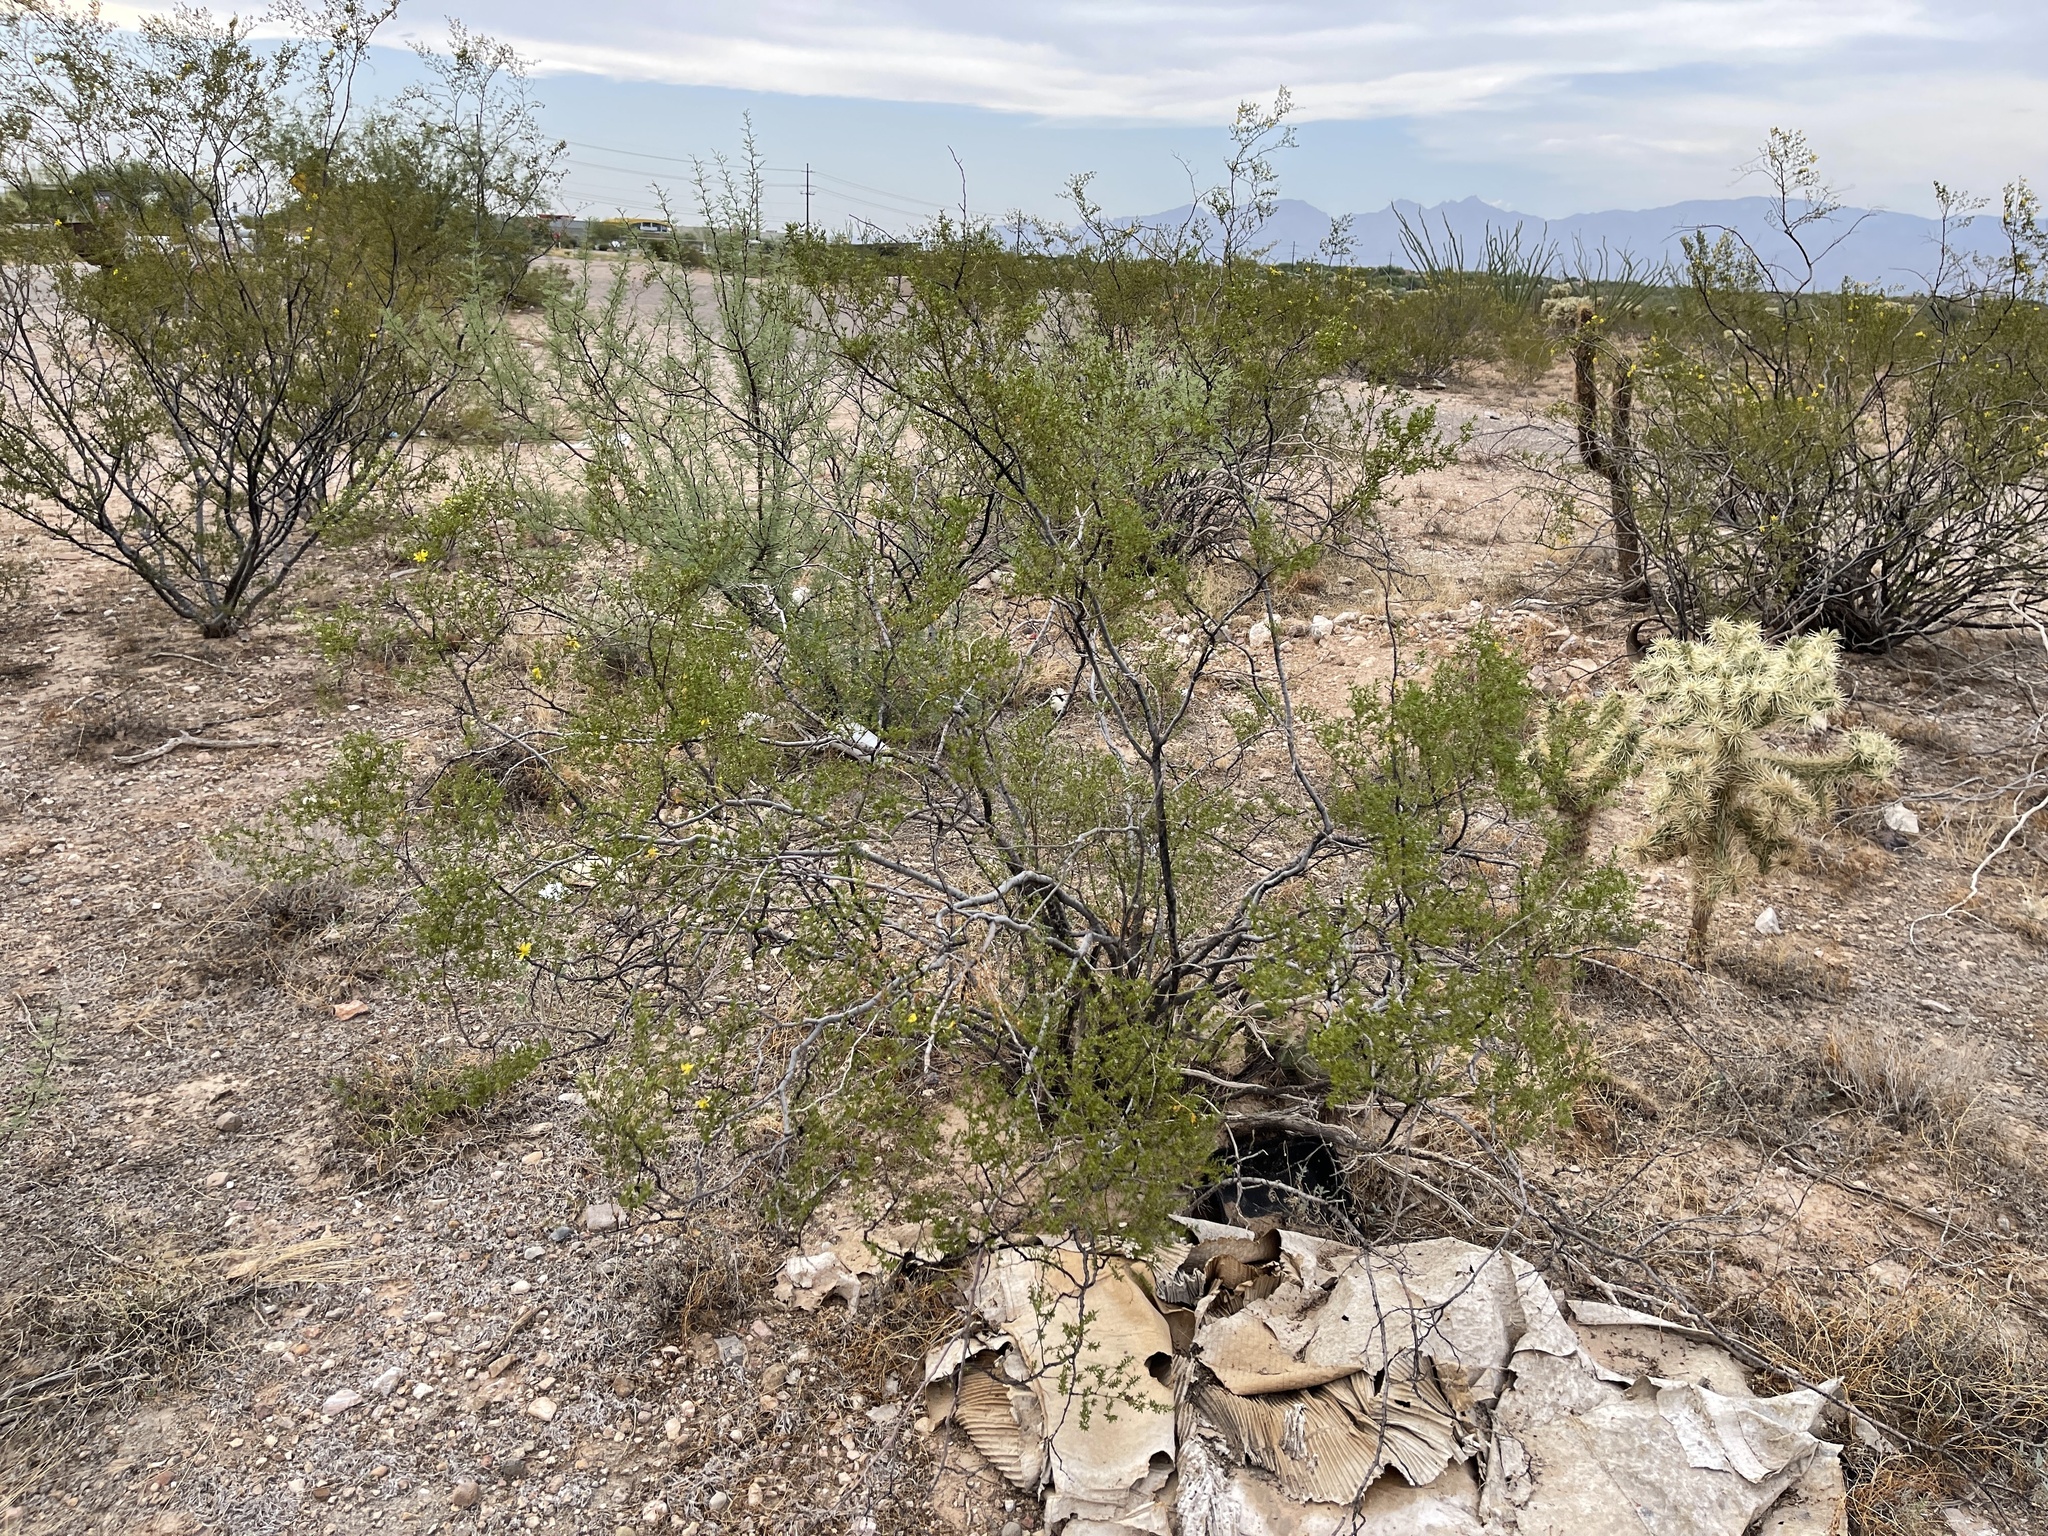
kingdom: Plantae
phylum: Tracheophyta
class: Magnoliopsida
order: Zygophyllales
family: Zygophyllaceae
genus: Larrea
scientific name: Larrea tridentata
